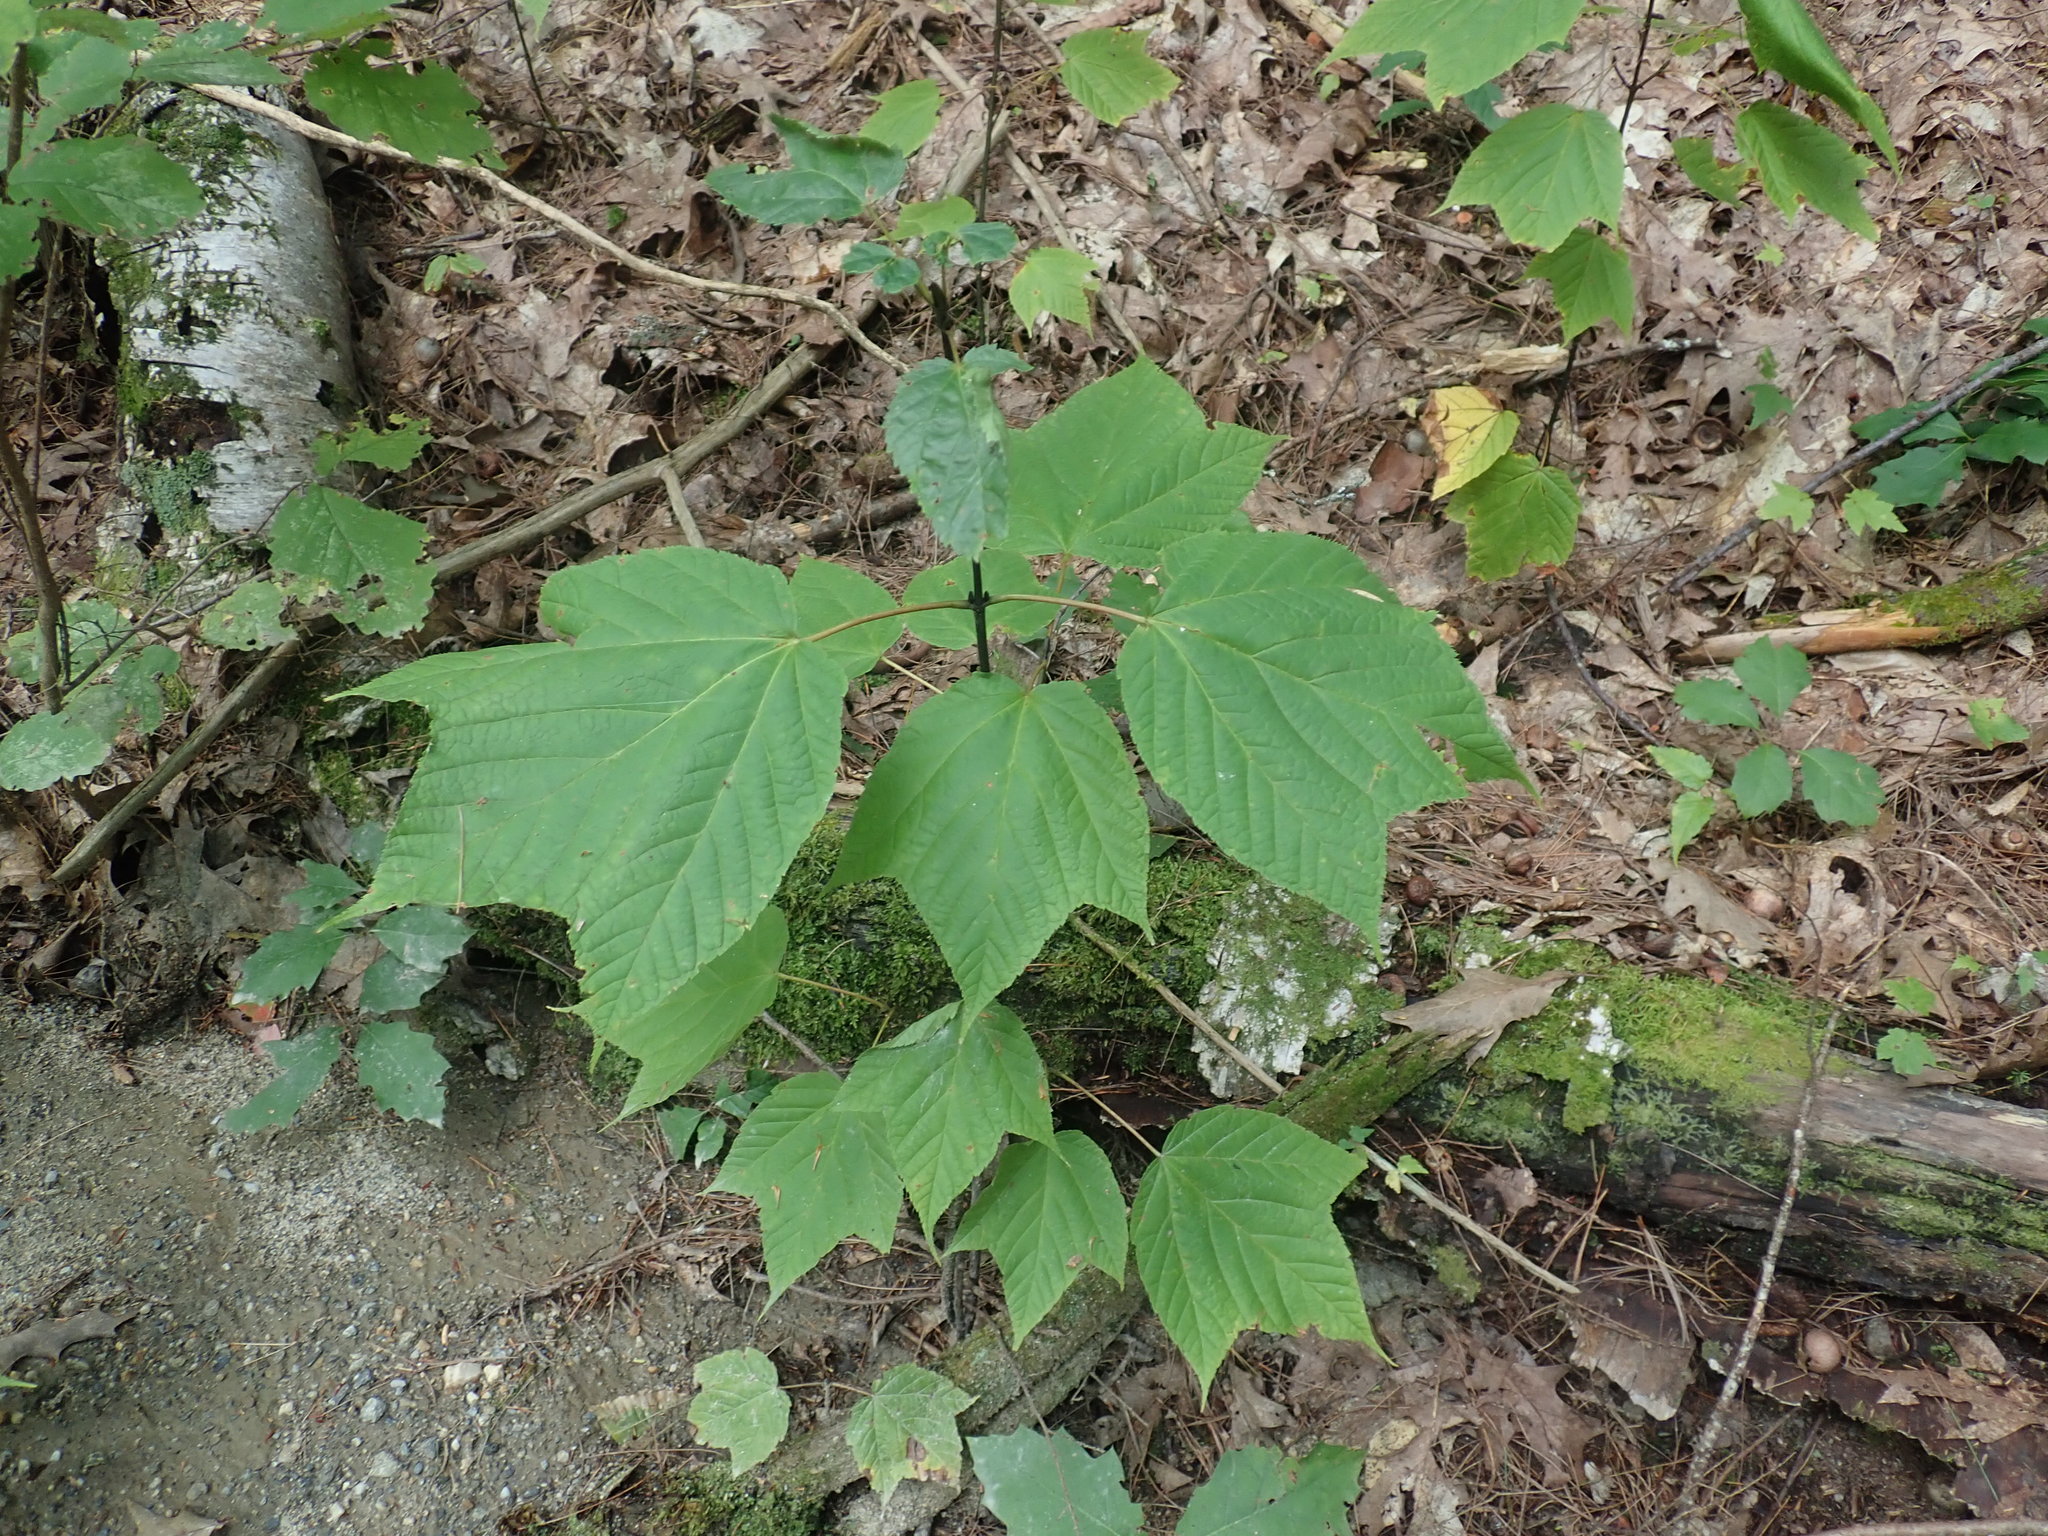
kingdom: Plantae
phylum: Tracheophyta
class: Magnoliopsida
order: Sapindales
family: Sapindaceae
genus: Acer
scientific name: Acer pensylvanicum
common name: Moosewood
